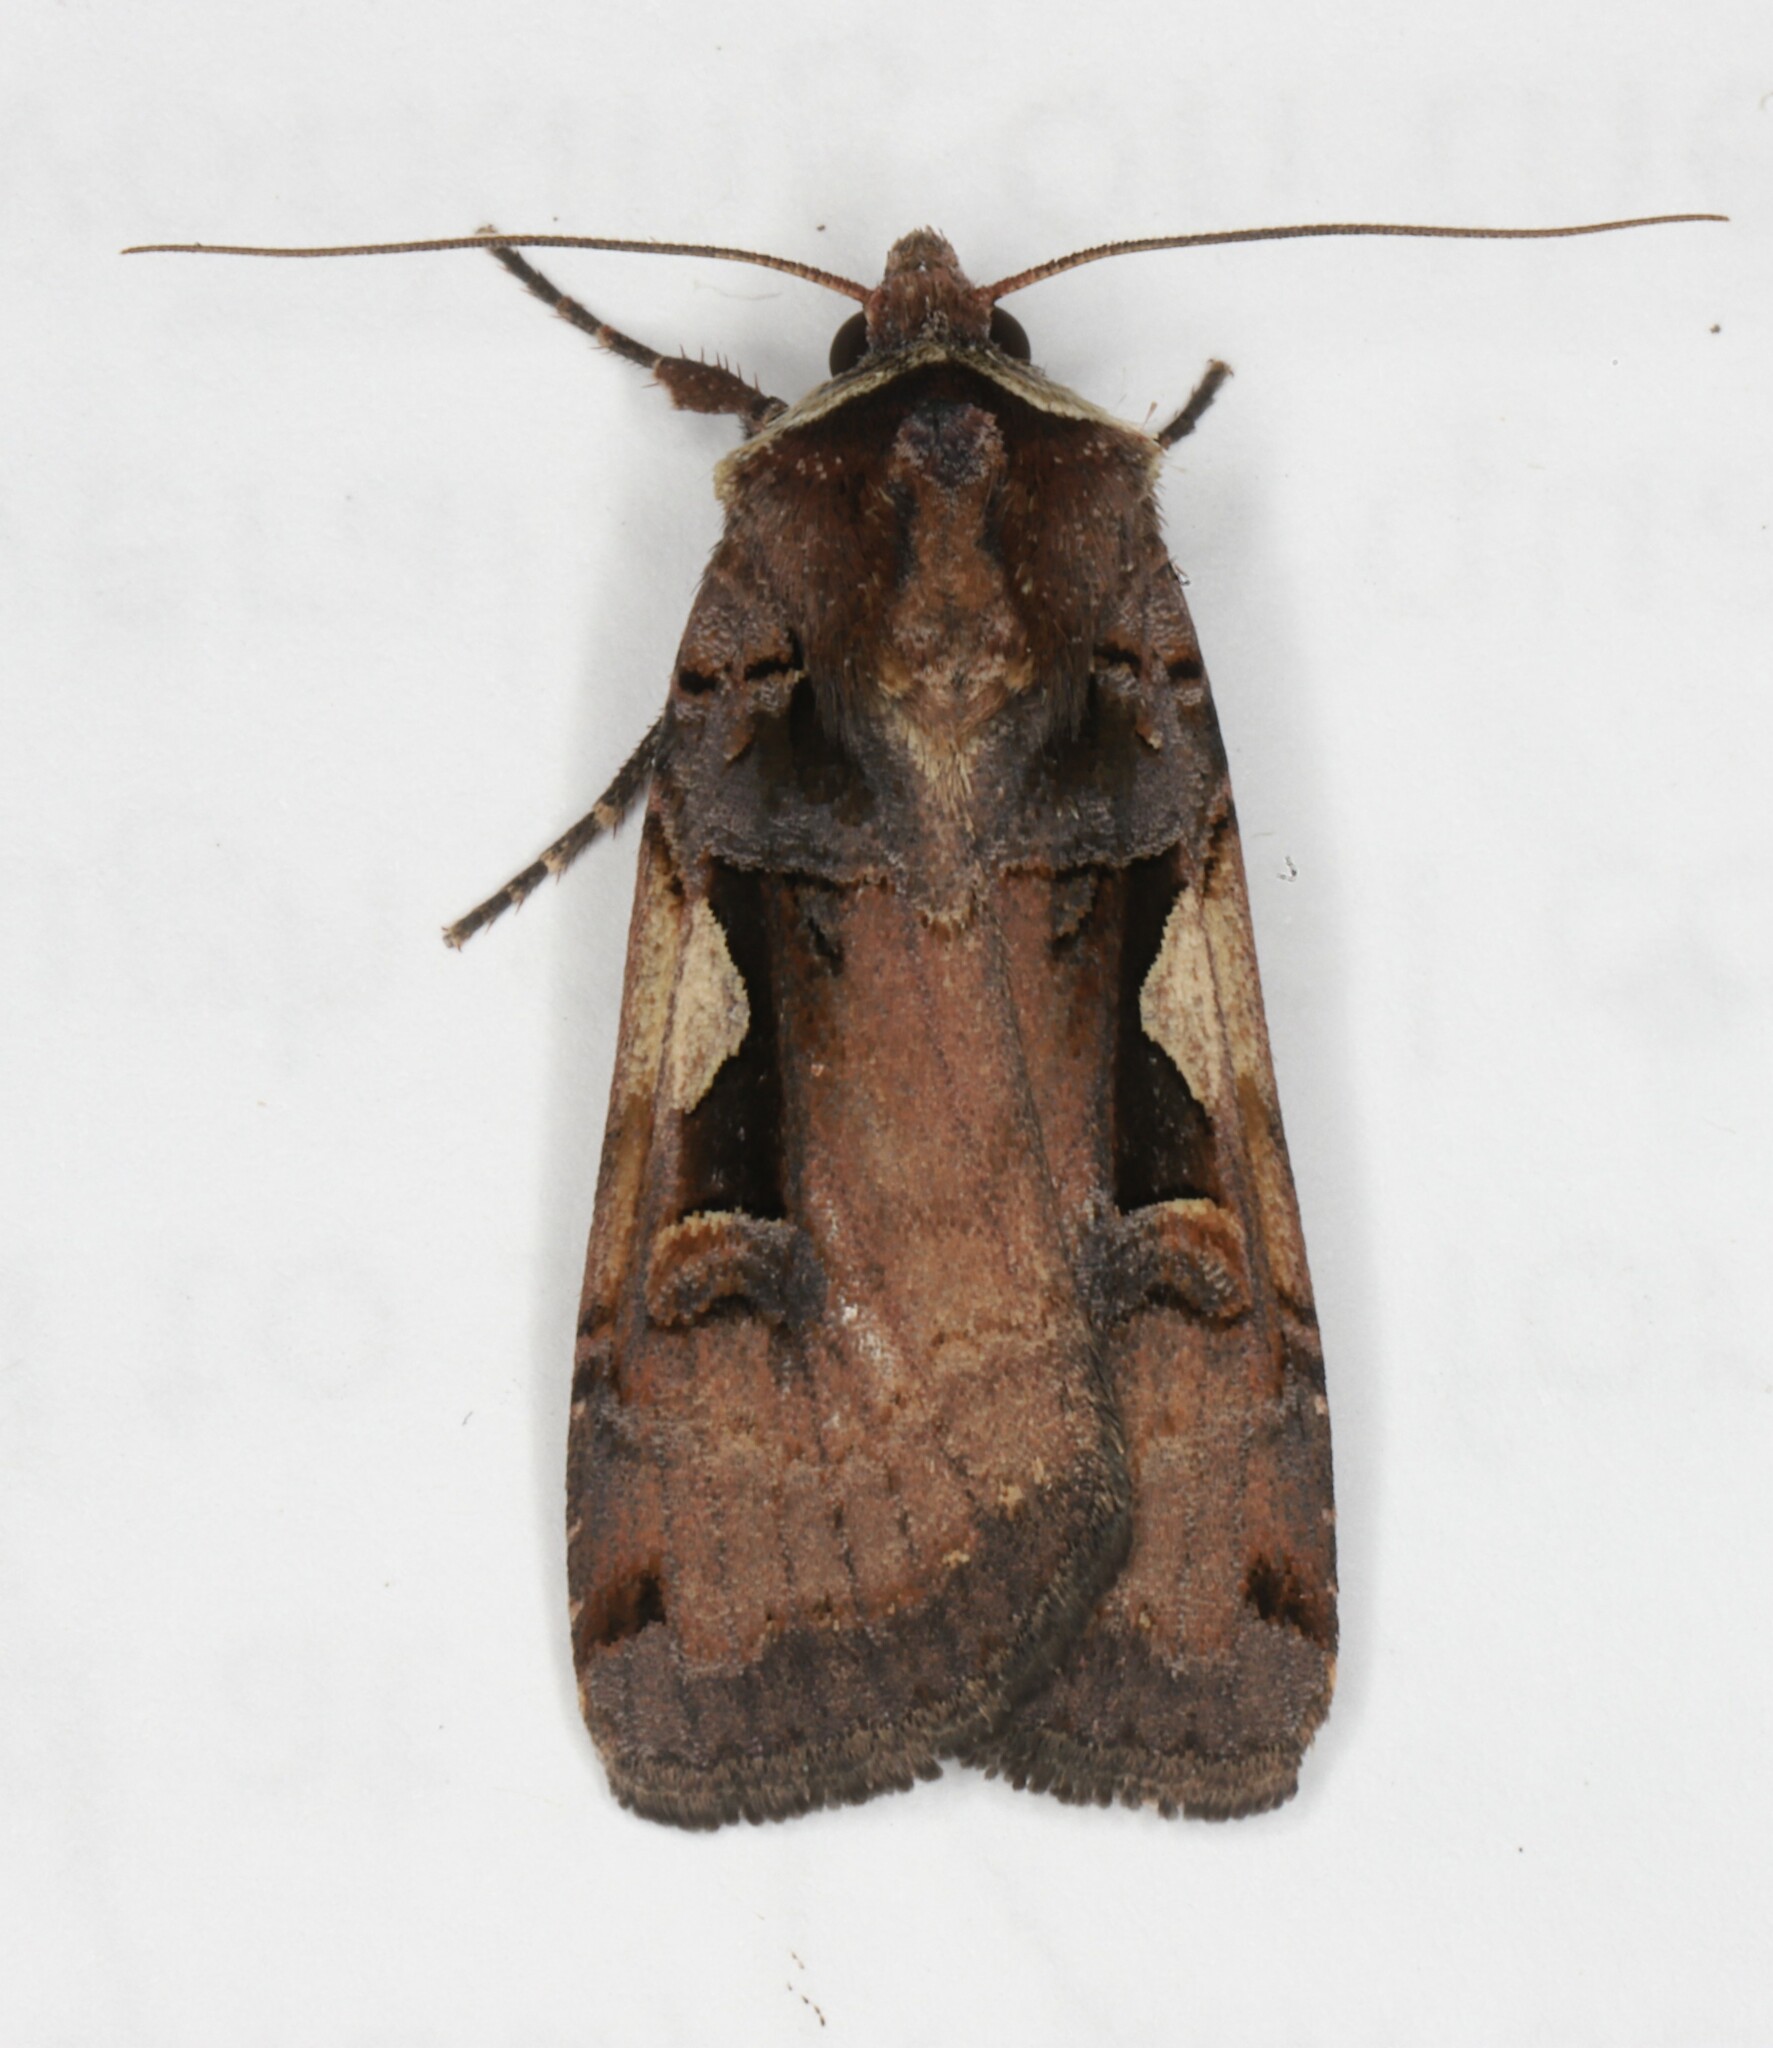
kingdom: Animalia
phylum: Arthropoda
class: Insecta
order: Lepidoptera
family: Noctuidae
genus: Xestia
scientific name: Xestia
